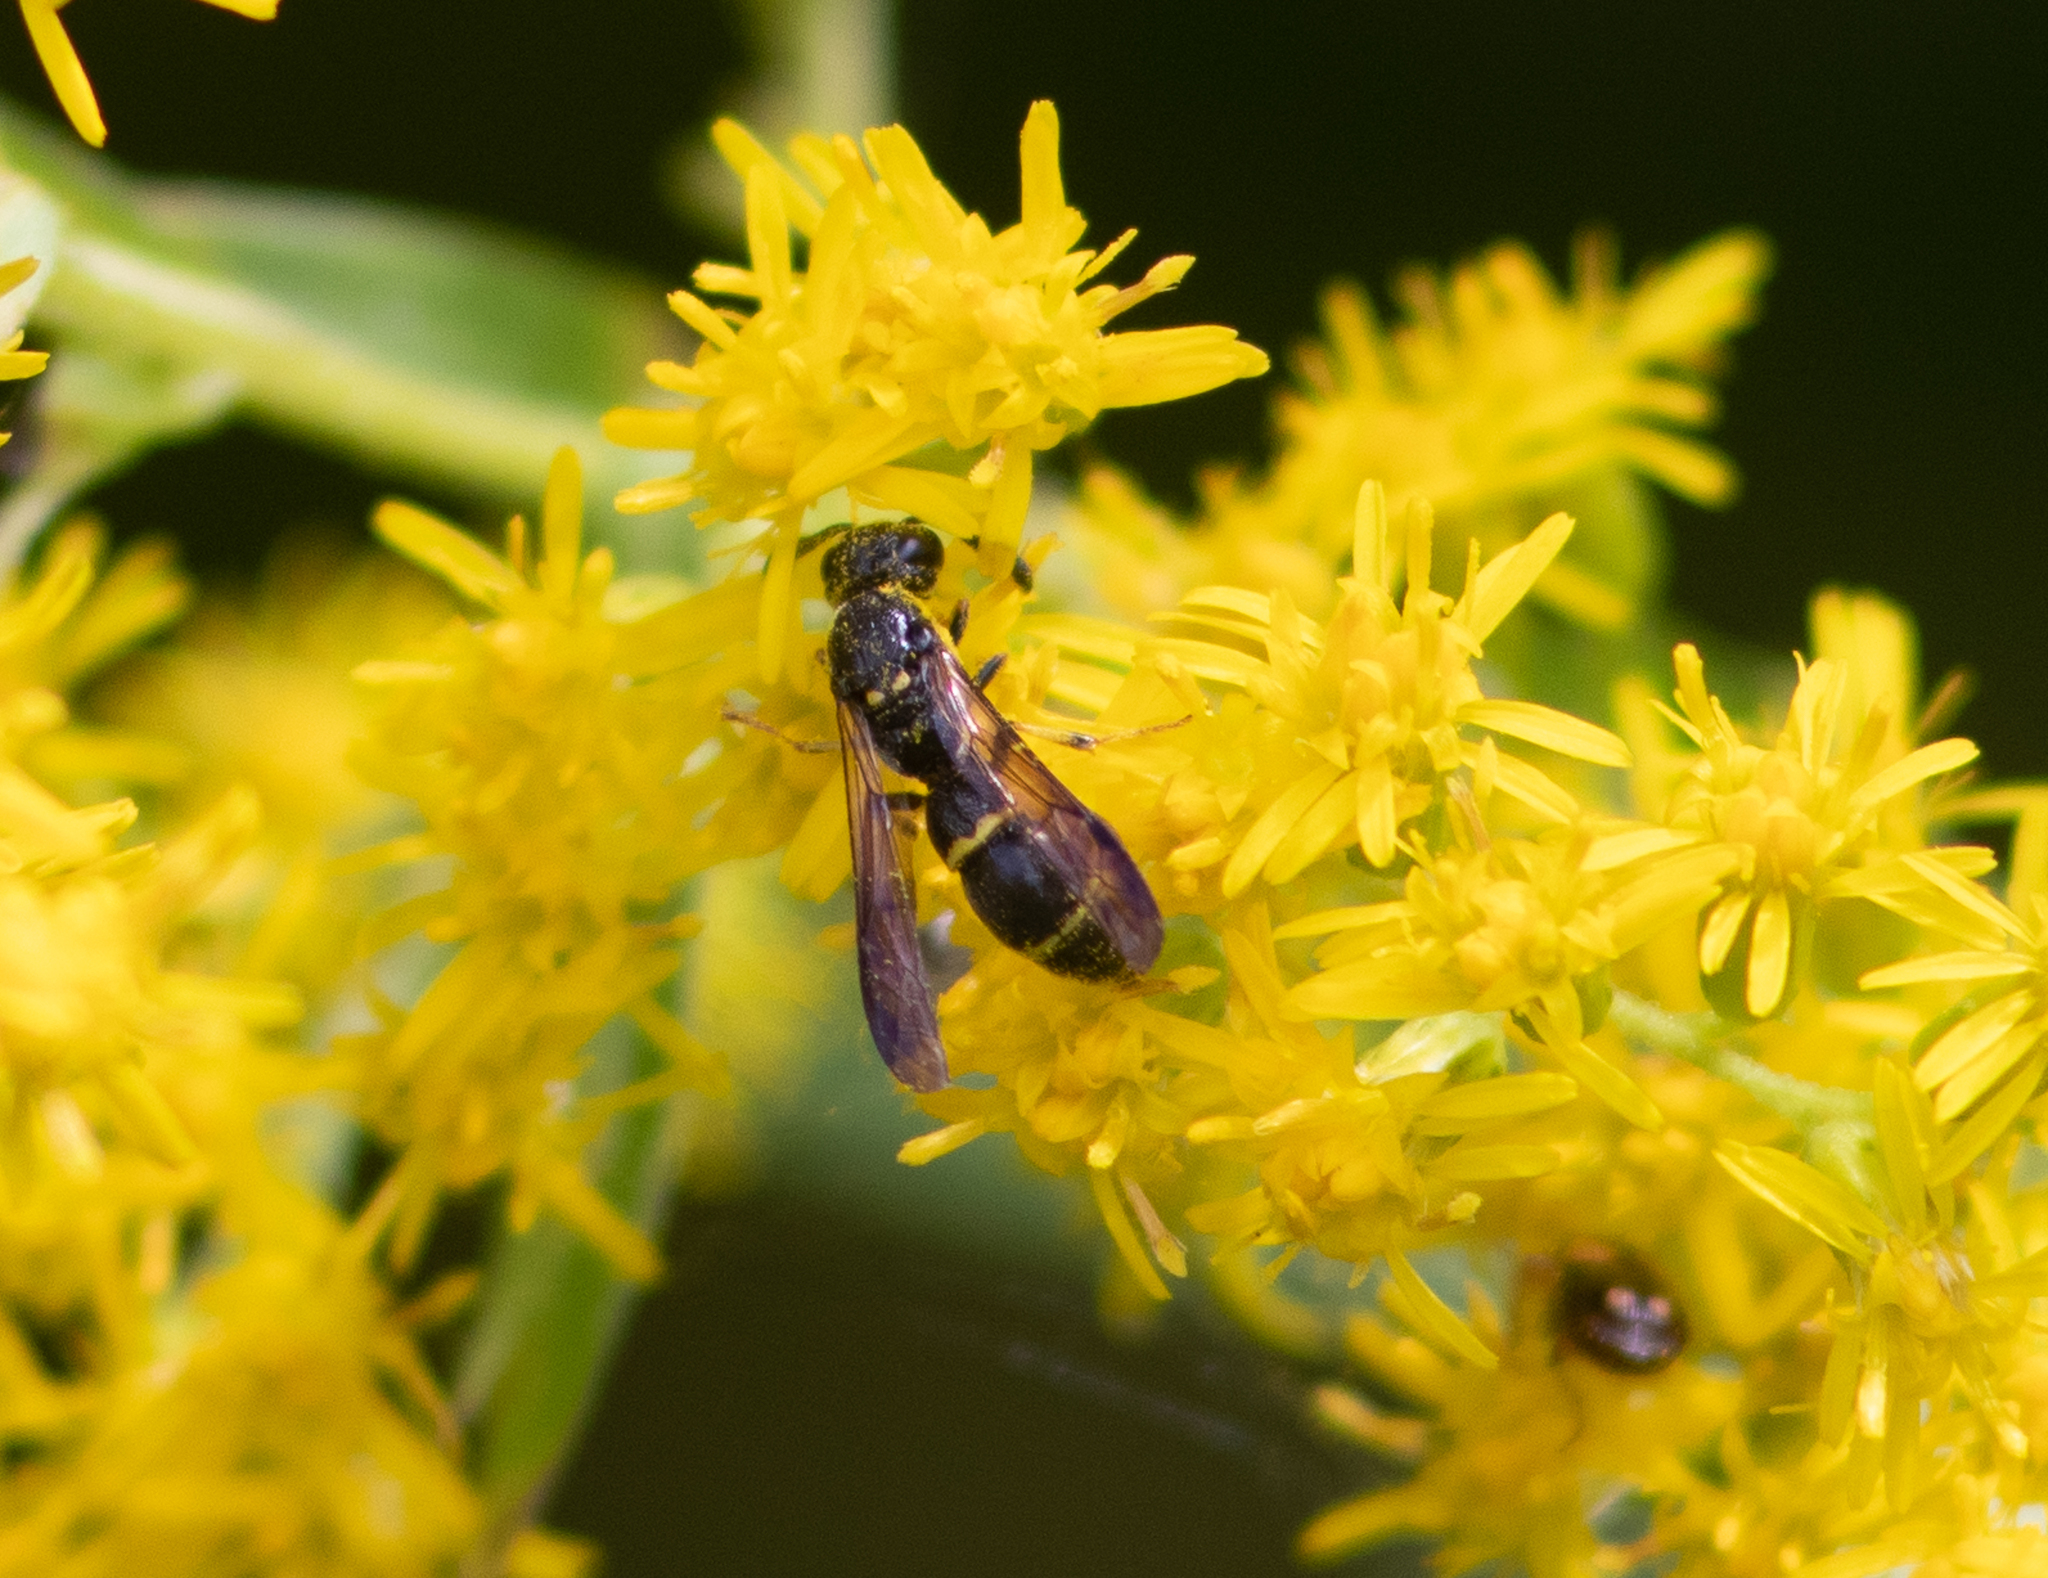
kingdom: Animalia
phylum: Arthropoda
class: Insecta
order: Hymenoptera
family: Eumenidae
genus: Symmorphus
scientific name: Symmorphus
